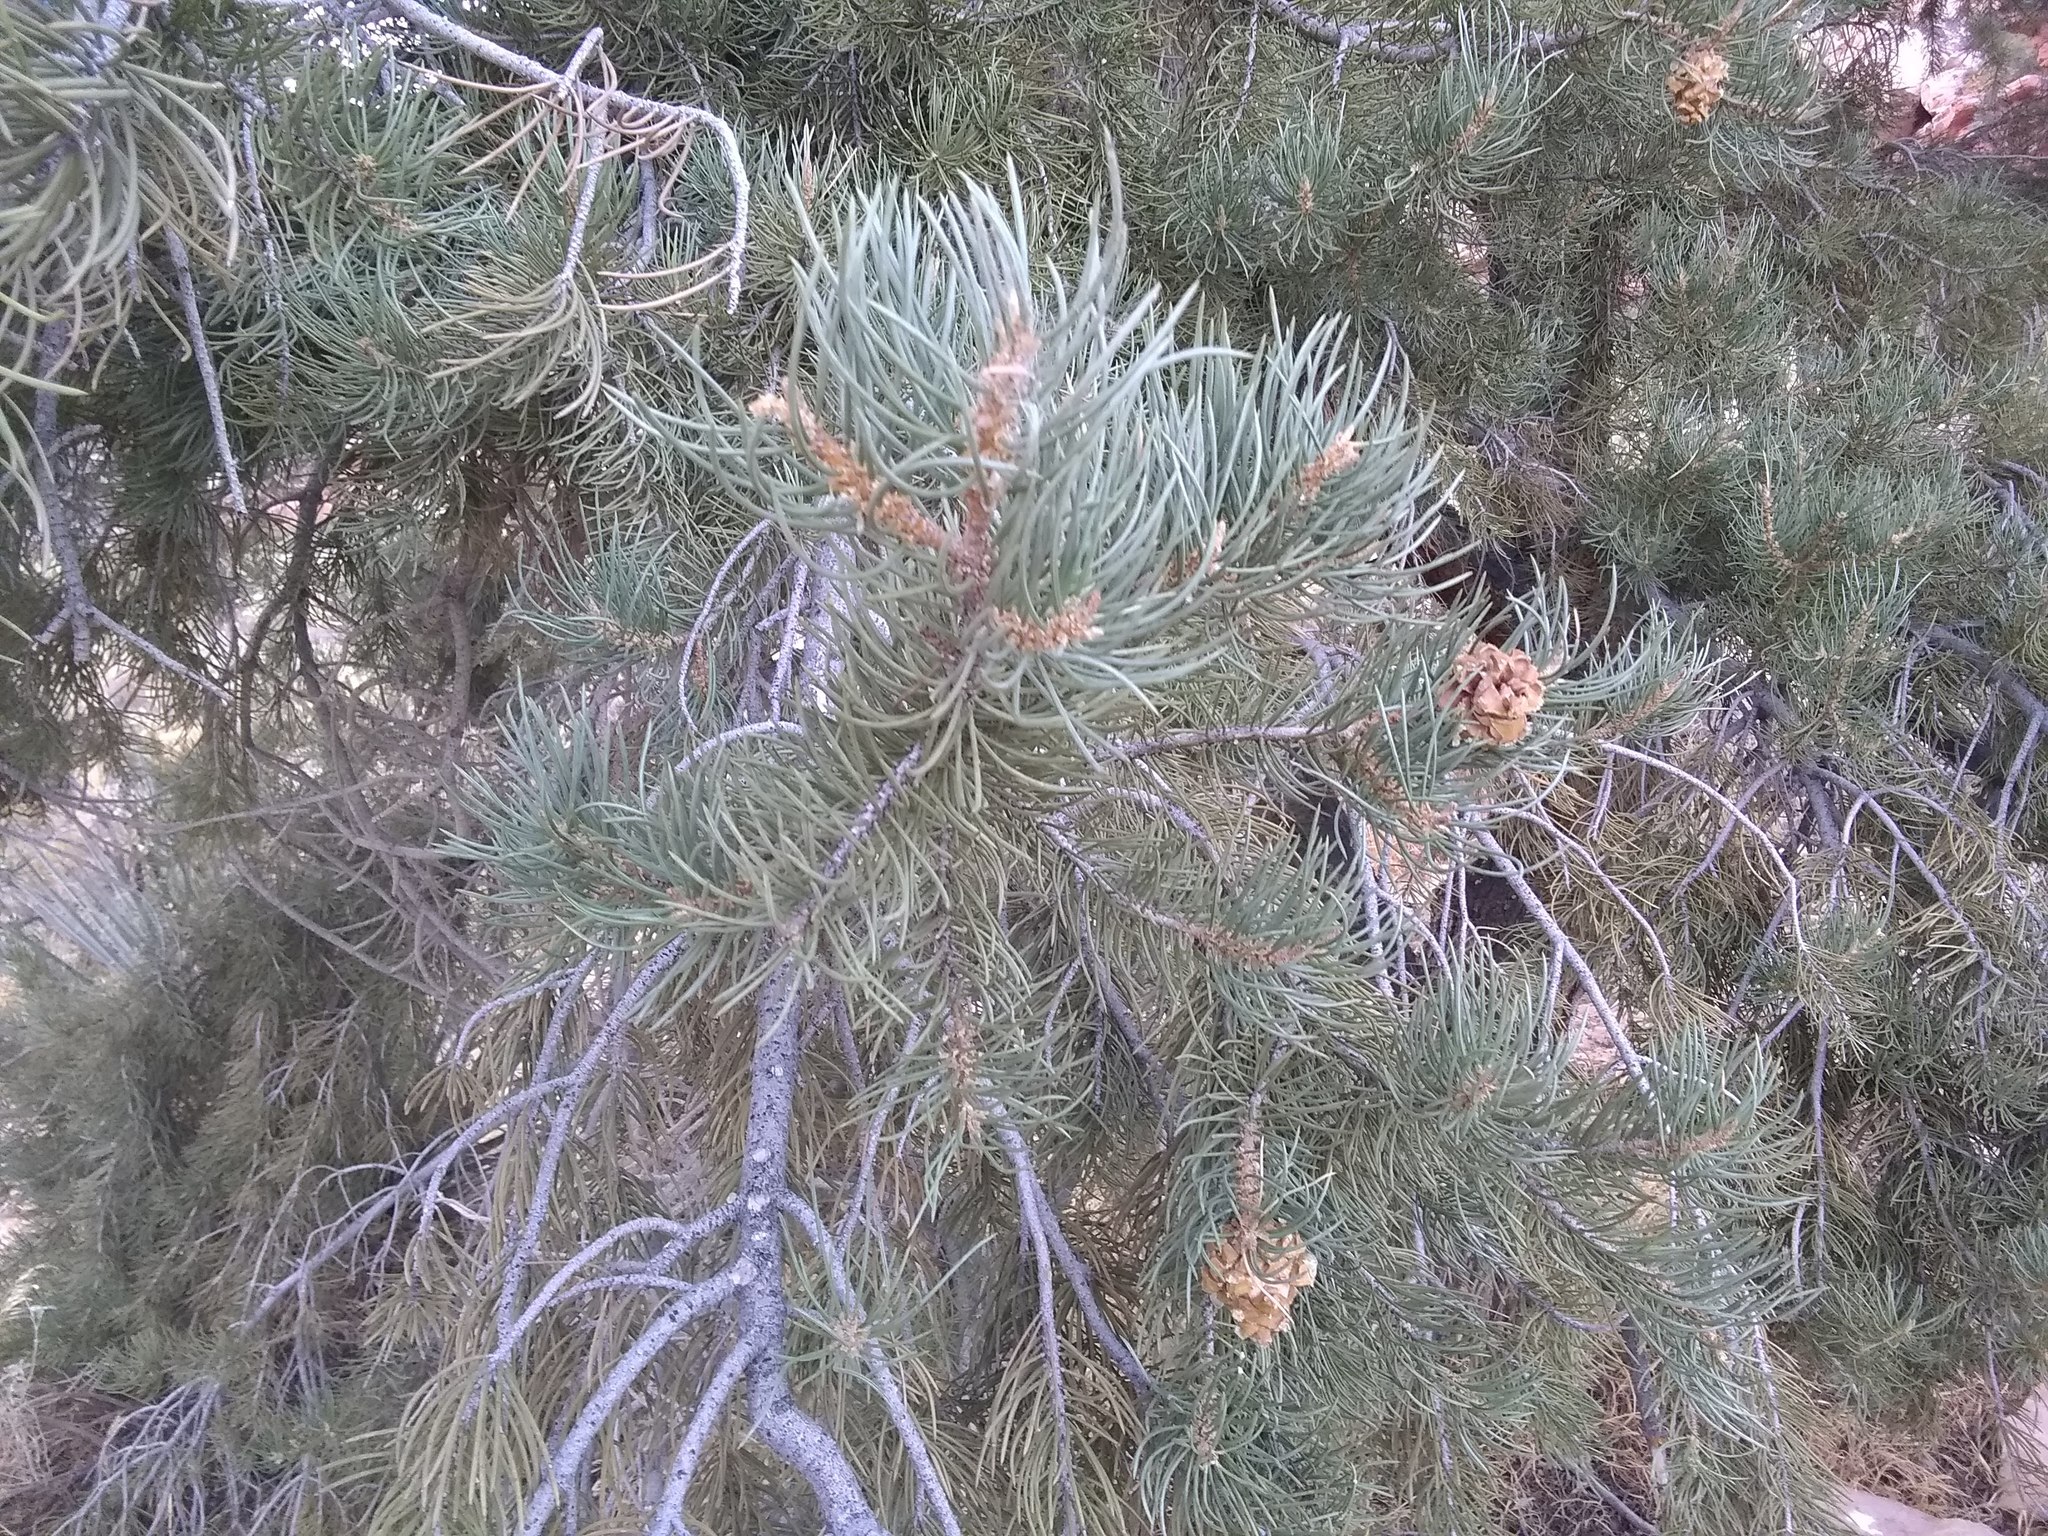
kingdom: Plantae
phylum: Tracheophyta
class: Pinopsida
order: Pinales
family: Pinaceae
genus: Pinus
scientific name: Pinus monophylla
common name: One-leaved nut pine
